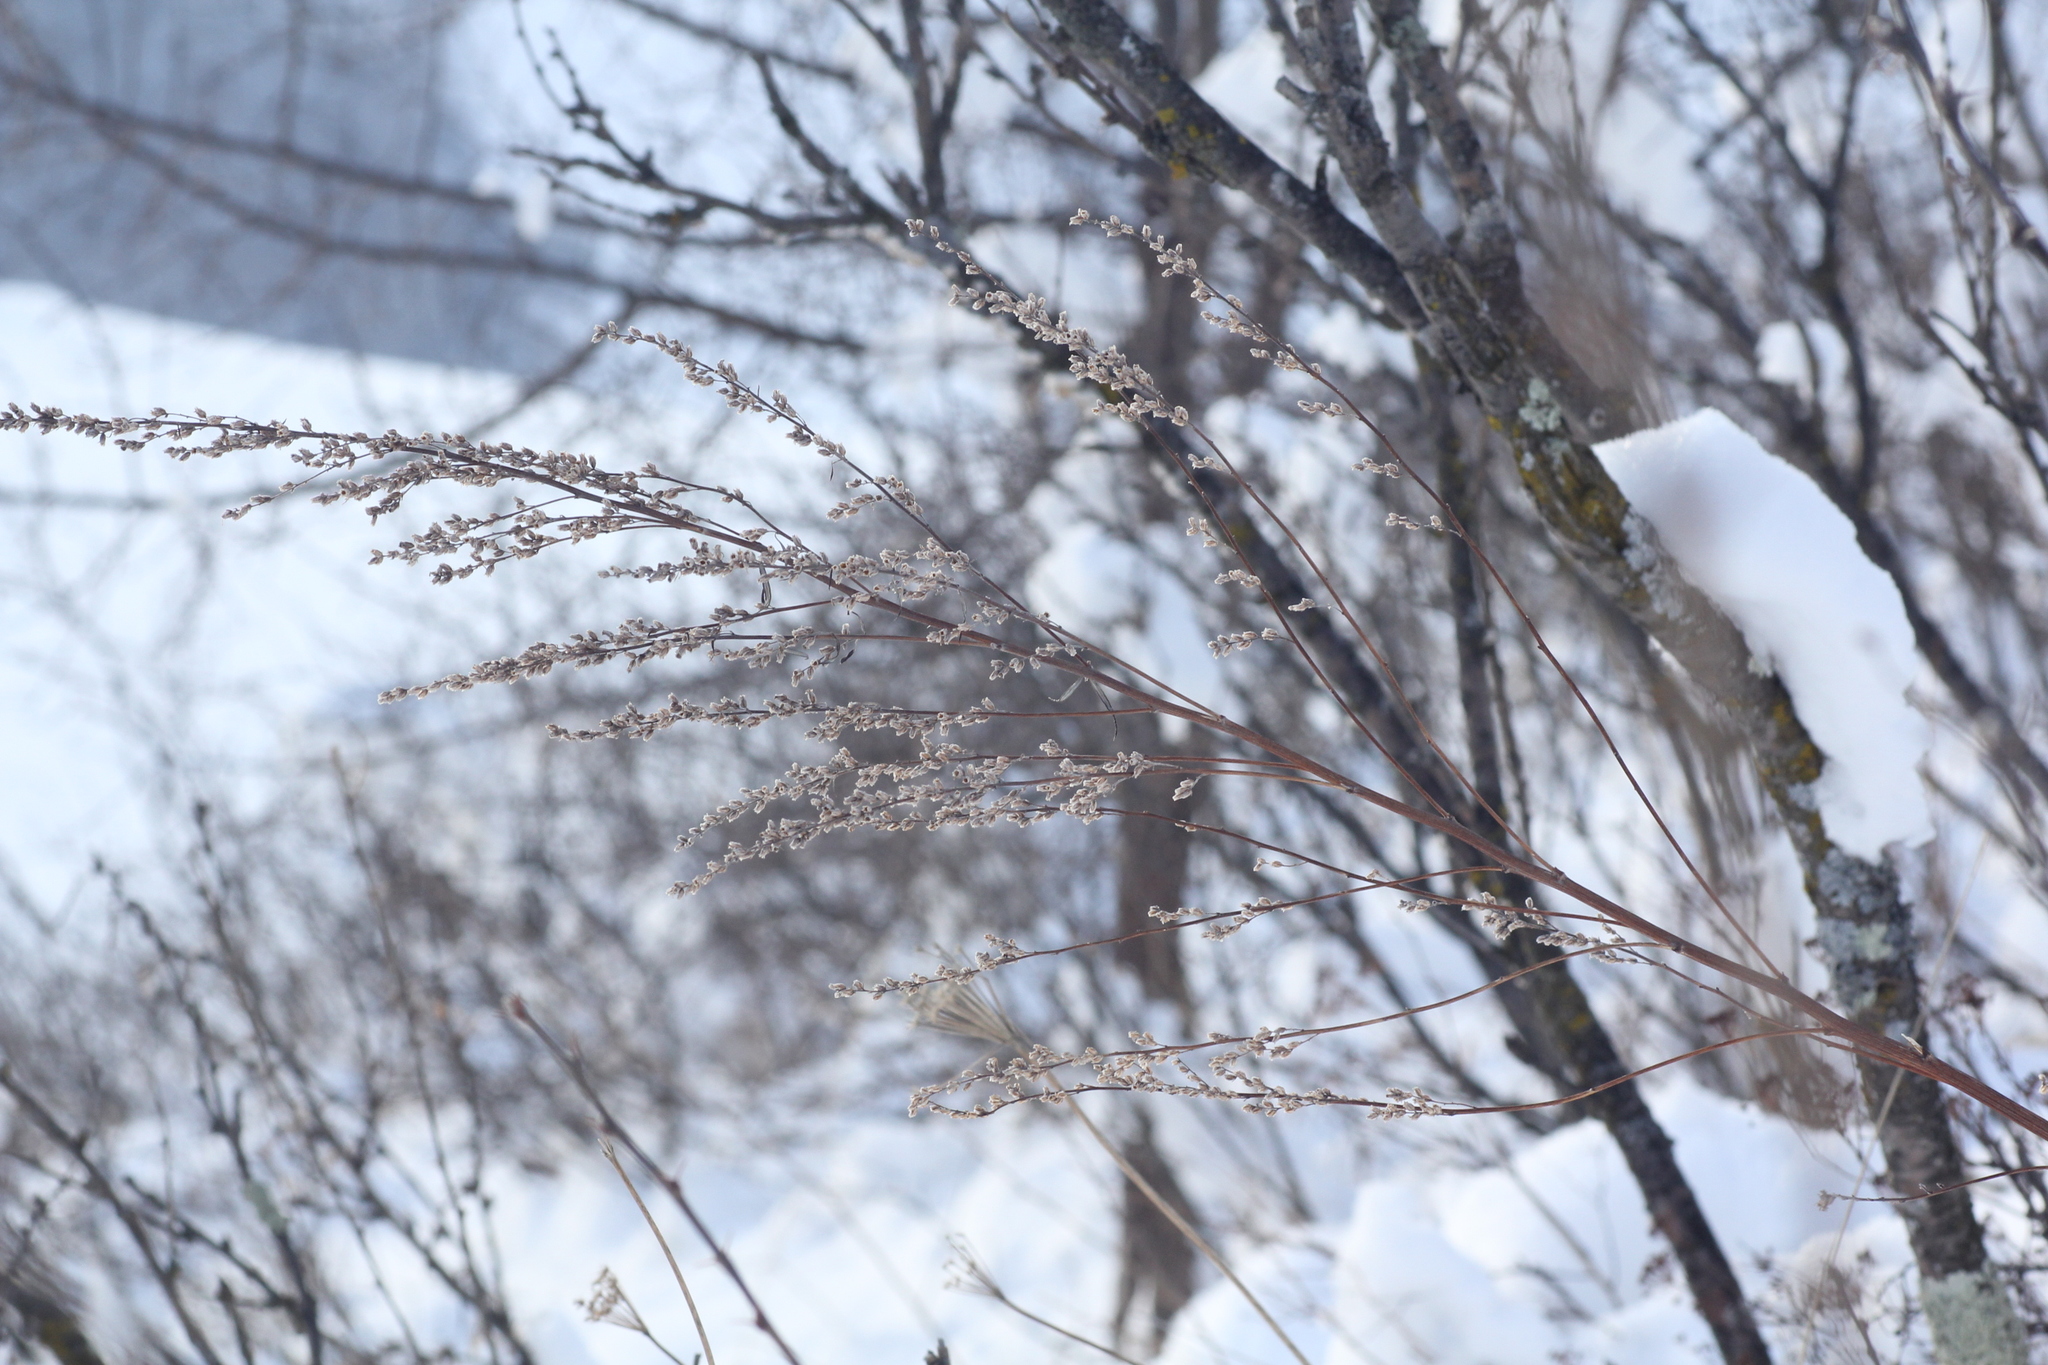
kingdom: Plantae
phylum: Tracheophyta
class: Magnoliopsida
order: Asterales
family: Asteraceae
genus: Artemisia
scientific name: Artemisia vulgaris
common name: Mugwort
